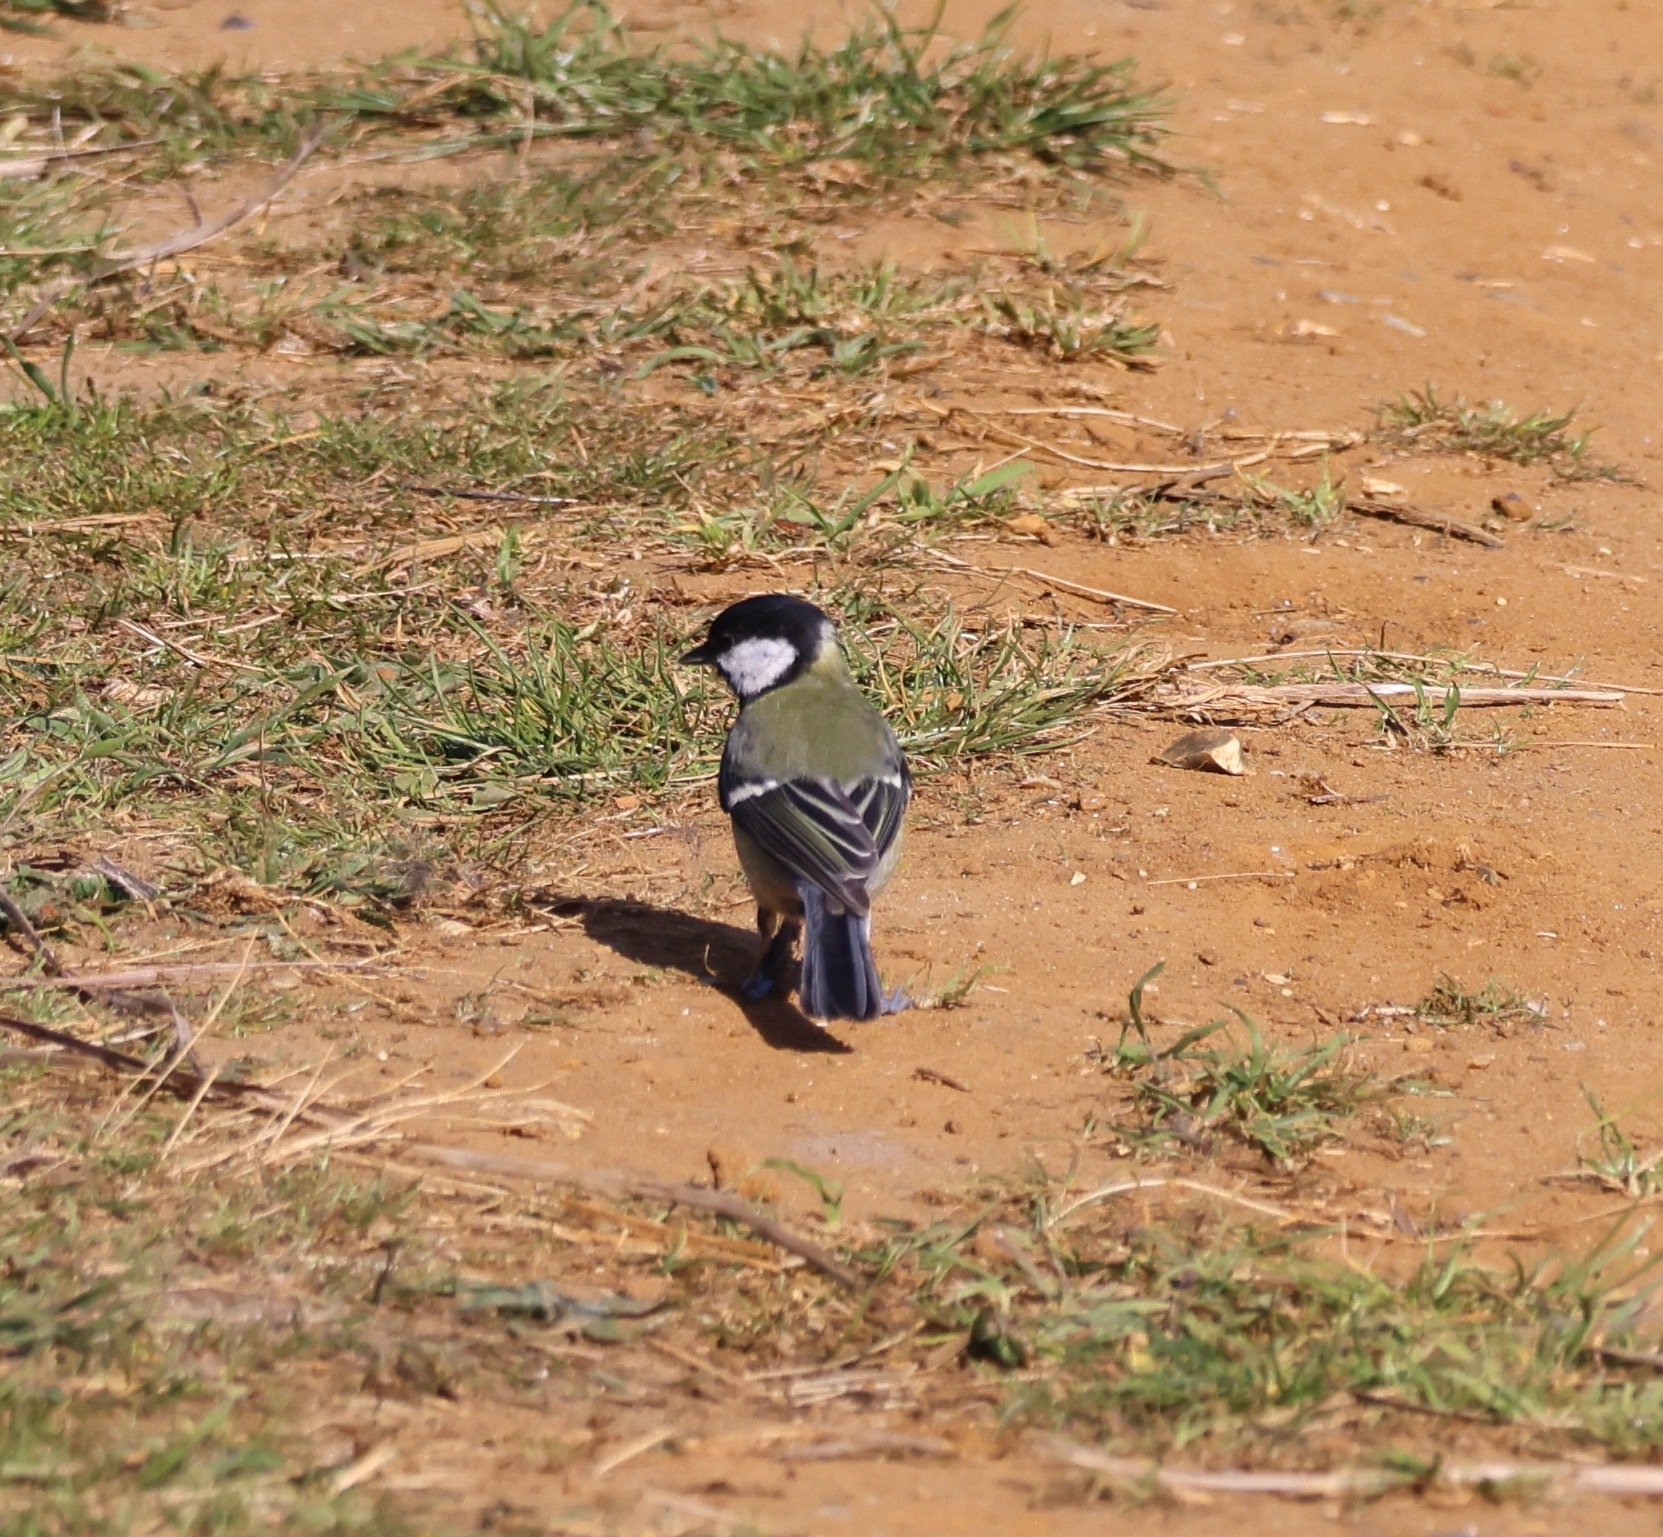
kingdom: Animalia
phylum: Chordata
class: Aves
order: Passeriformes
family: Paridae
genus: Parus
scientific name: Parus major
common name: Great tit
